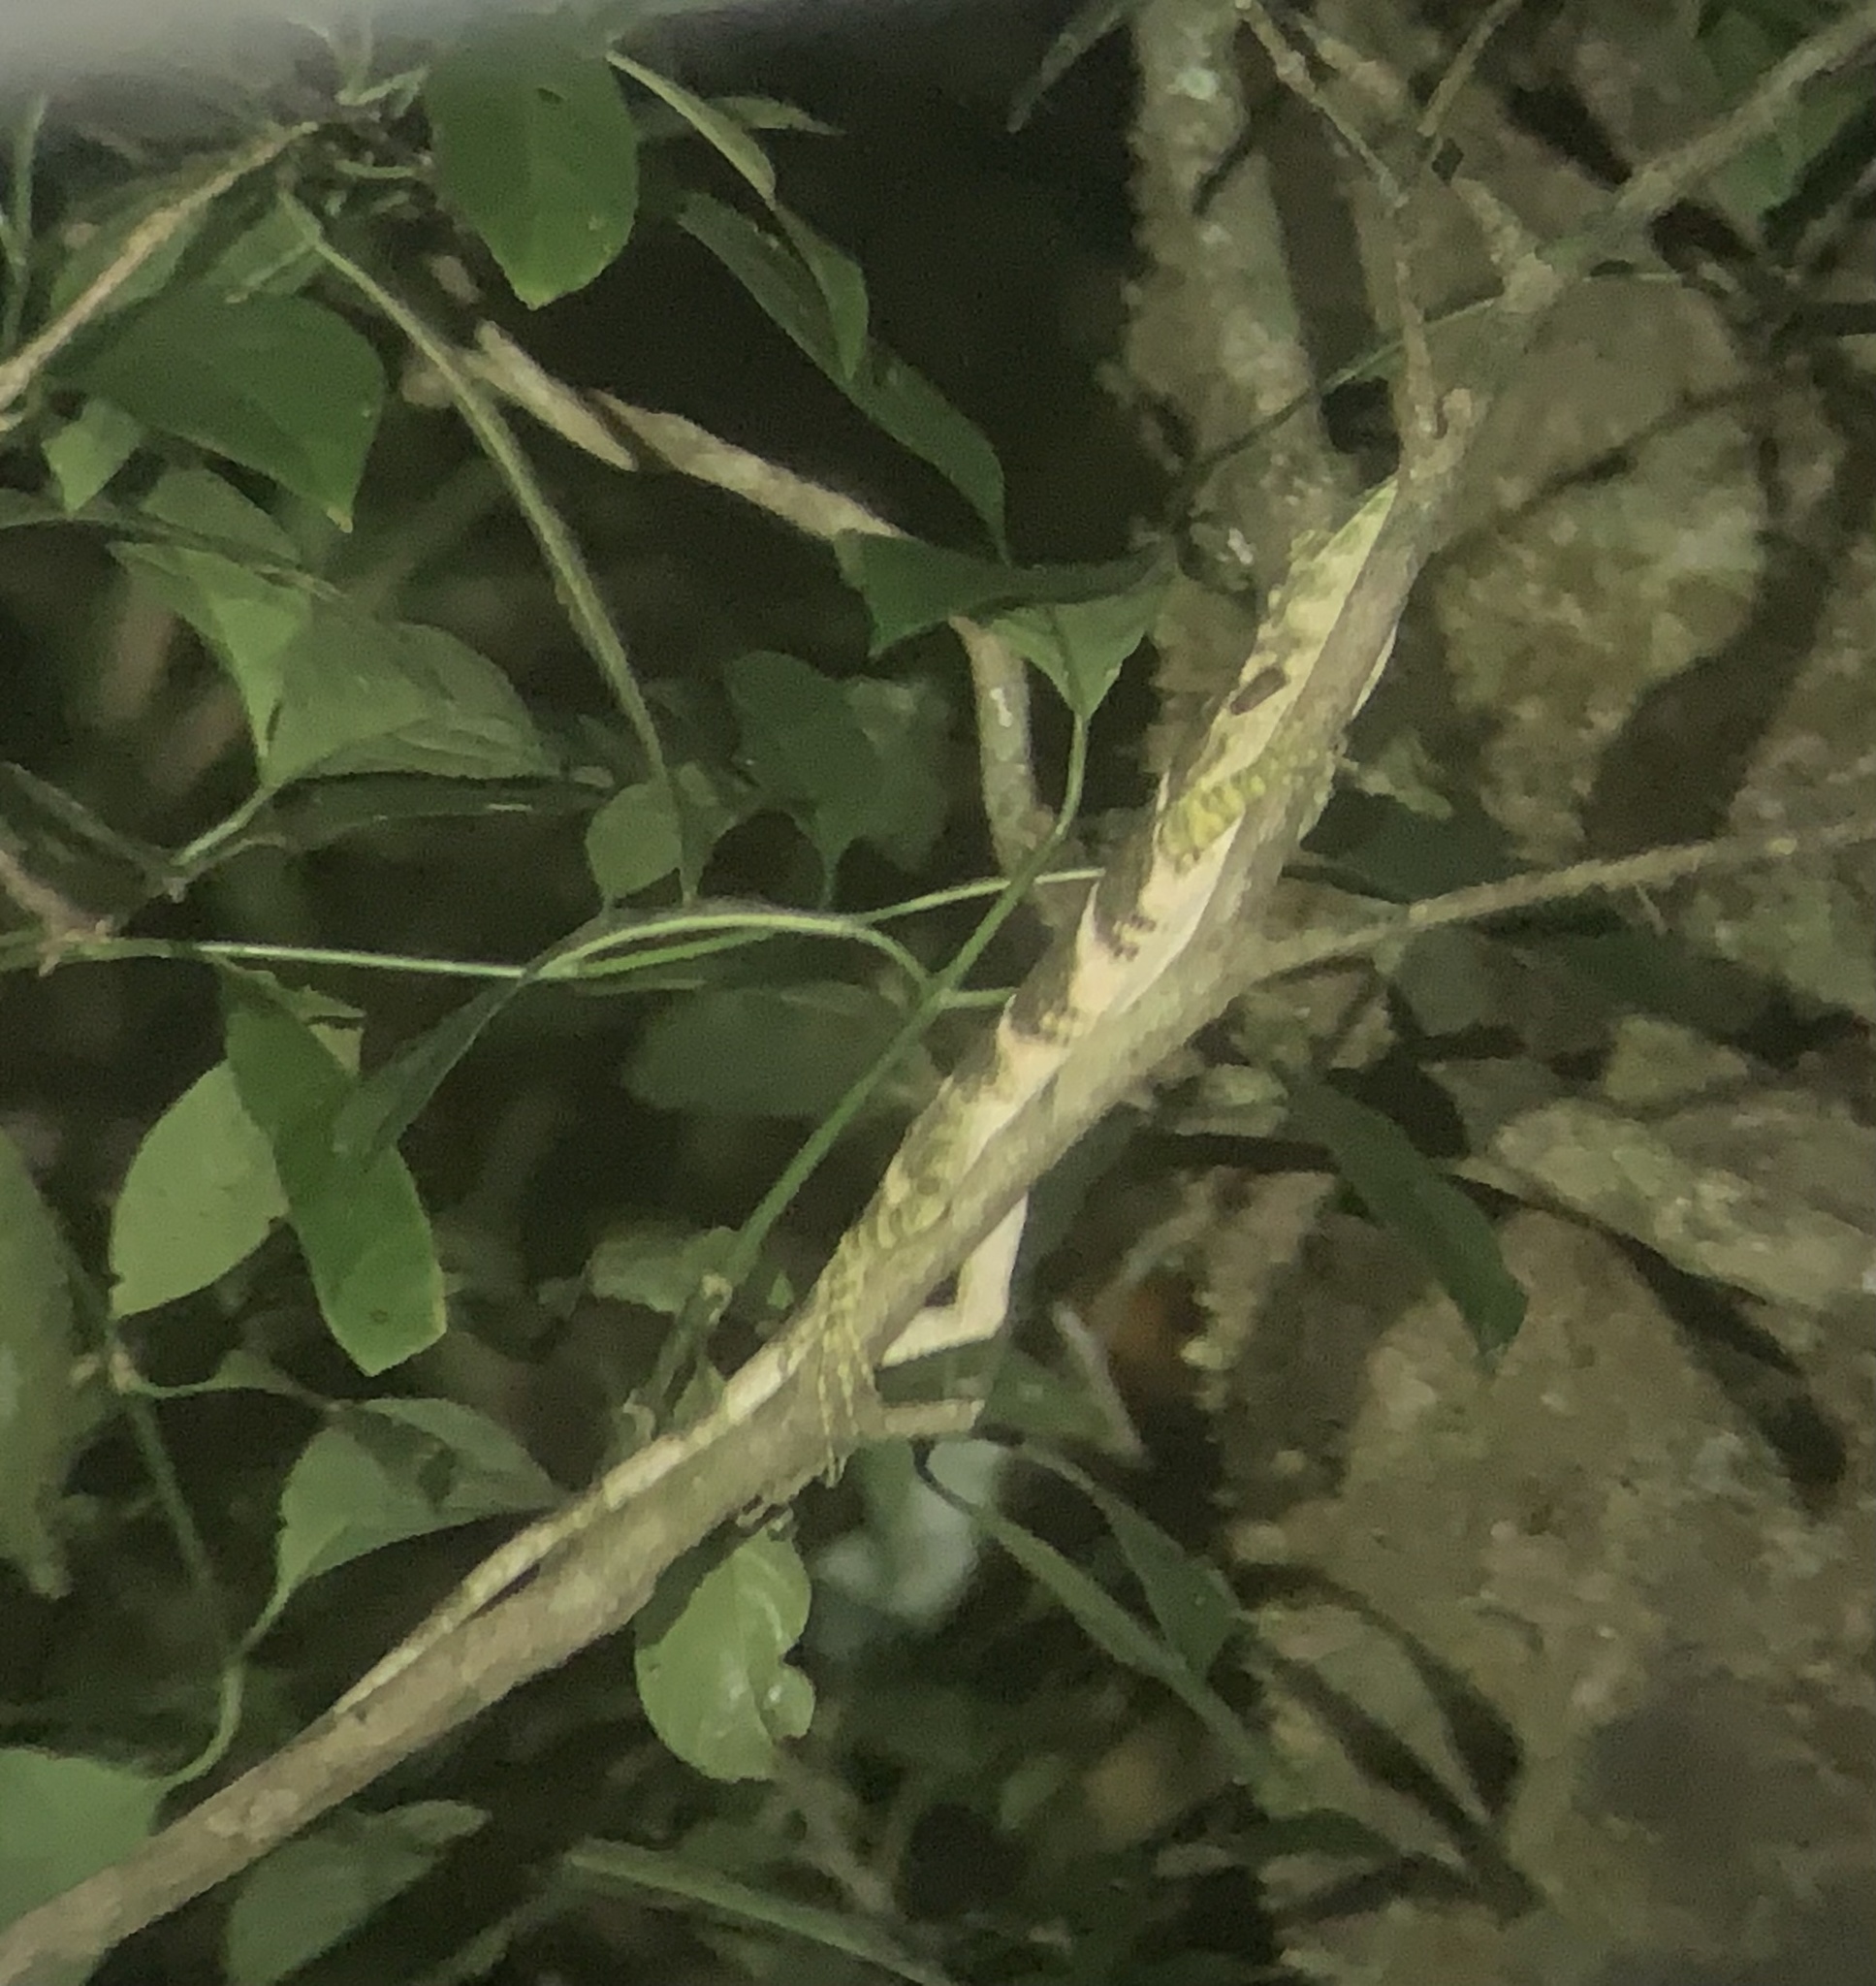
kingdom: Animalia
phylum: Chordata
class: Squamata
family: Dactyloidae
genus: Anolis
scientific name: Anolis insignis
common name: Decorated anole
